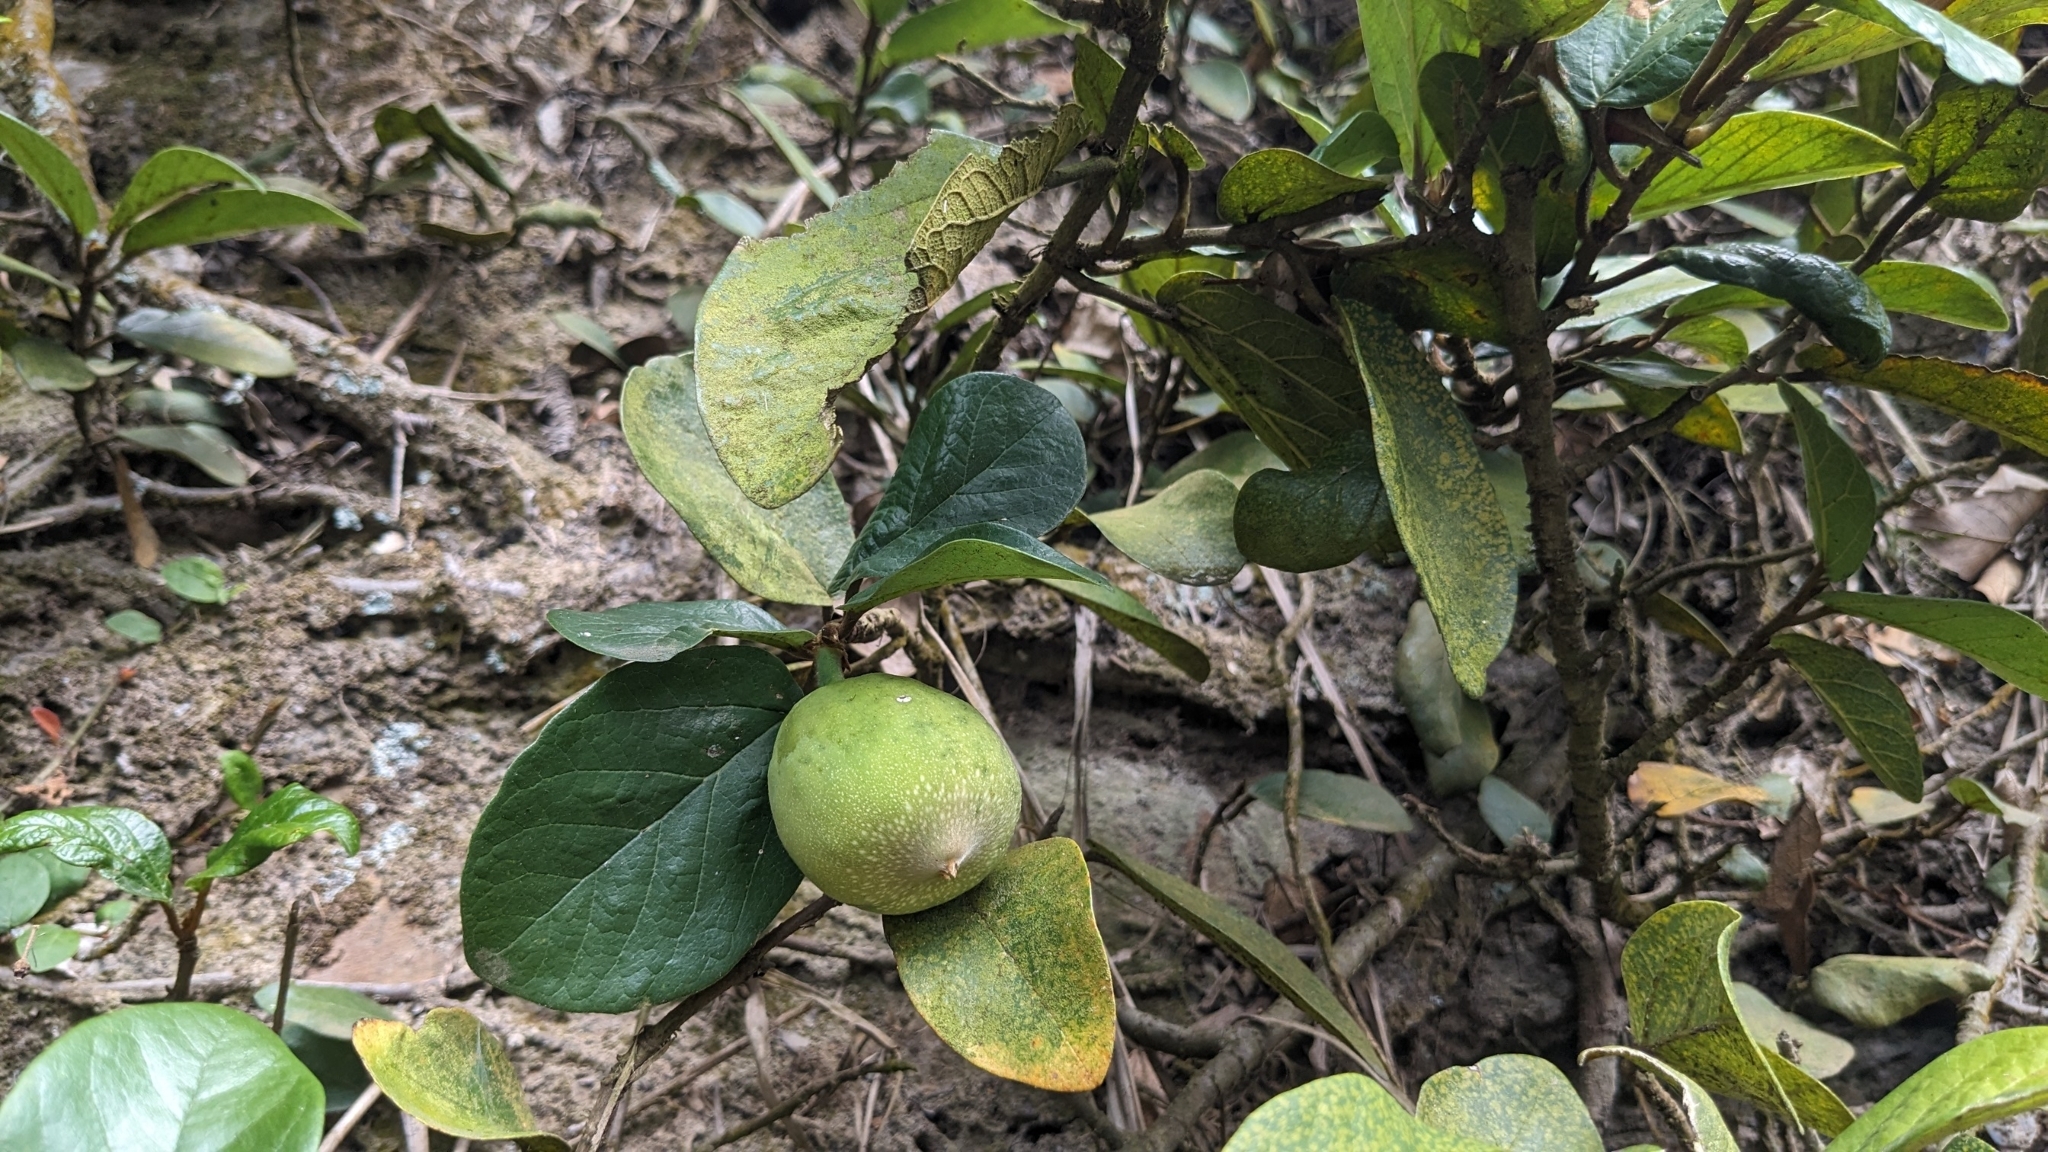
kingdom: Plantae
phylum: Tracheophyta
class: Magnoliopsida
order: Rosales
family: Moraceae
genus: Ficus
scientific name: Ficus pumila
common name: Climbingfig
